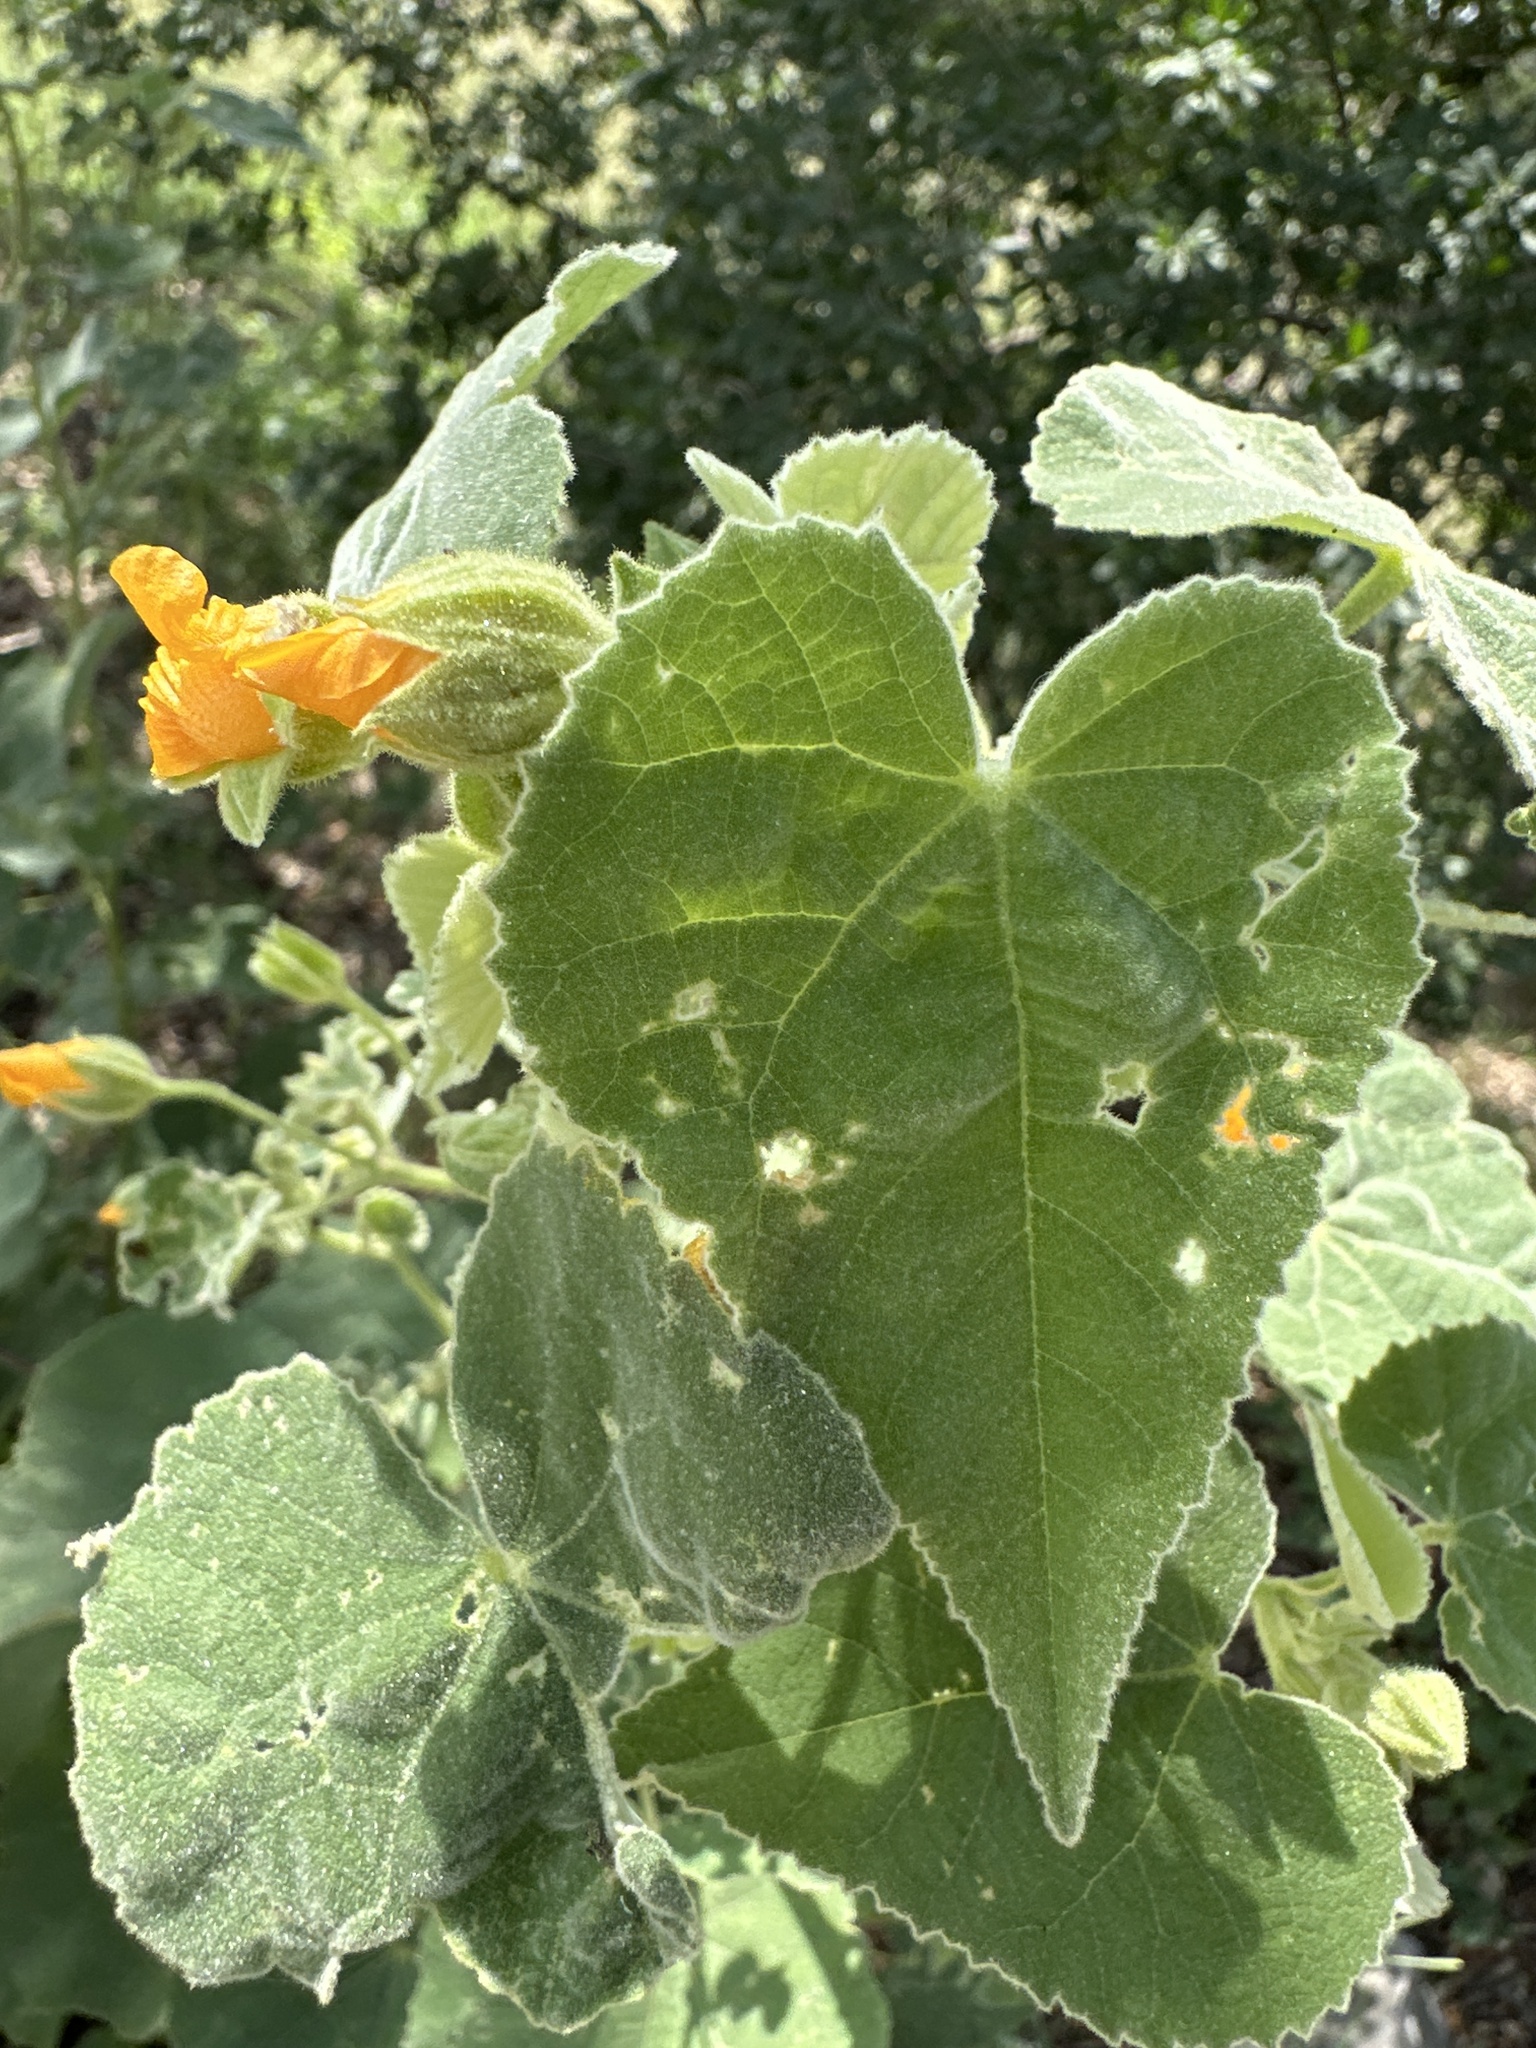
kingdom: Plantae
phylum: Tracheophyta
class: Magnoliopsida
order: Malvales
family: Malvaceae
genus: Allowissadula
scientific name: Allowissadula holosericea
